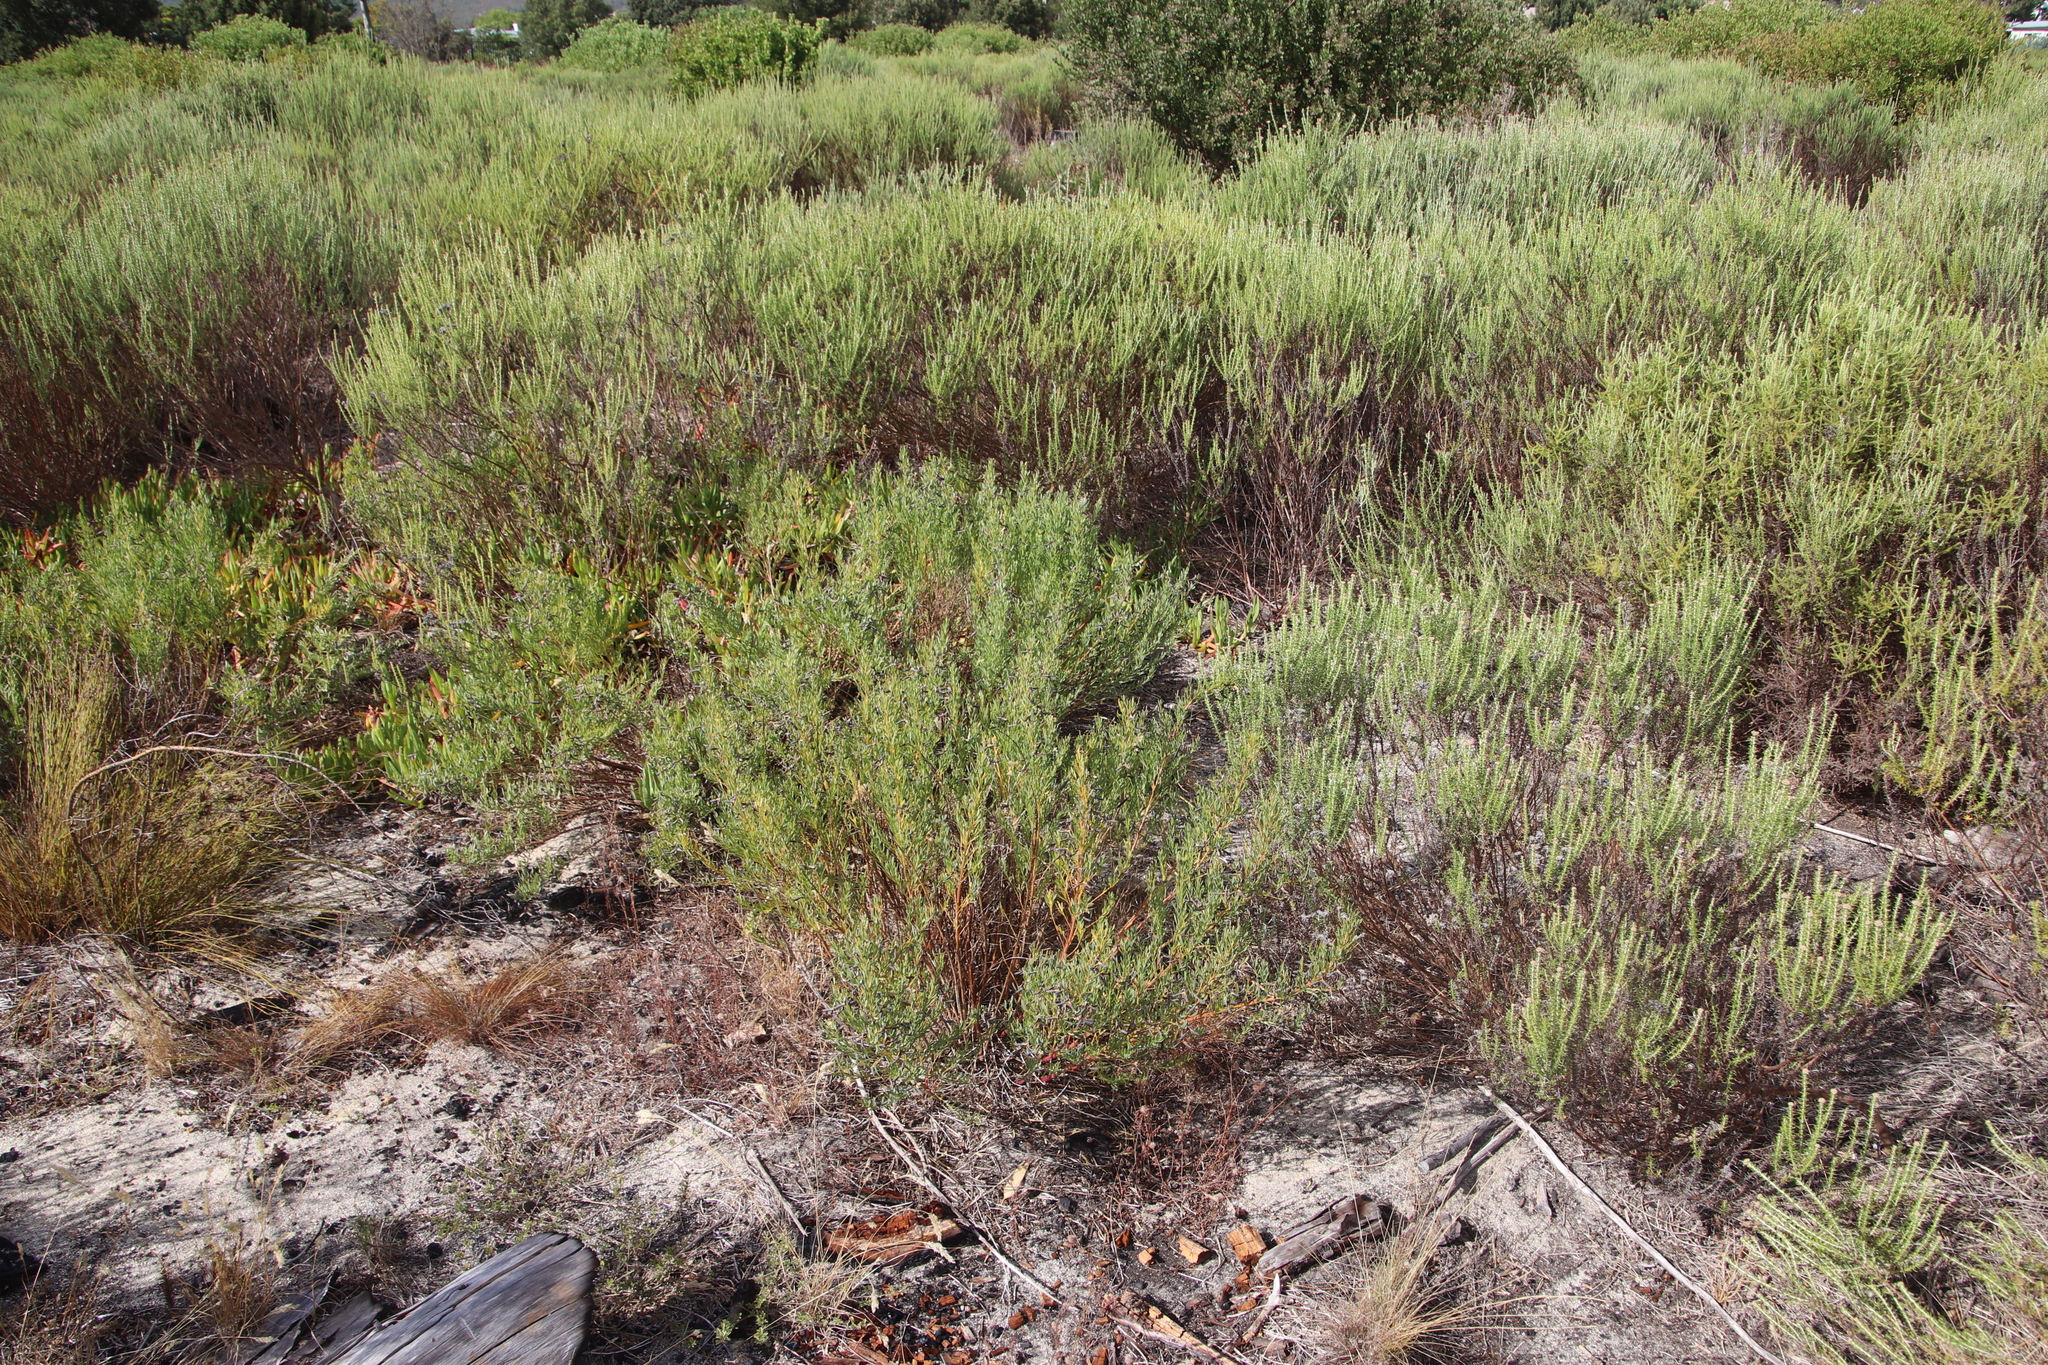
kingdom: Plantae
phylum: Tracheophyta
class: Magnoliopsida
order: Fabales
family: Fabaceae
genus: Rafnia
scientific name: Rafnia capensis
